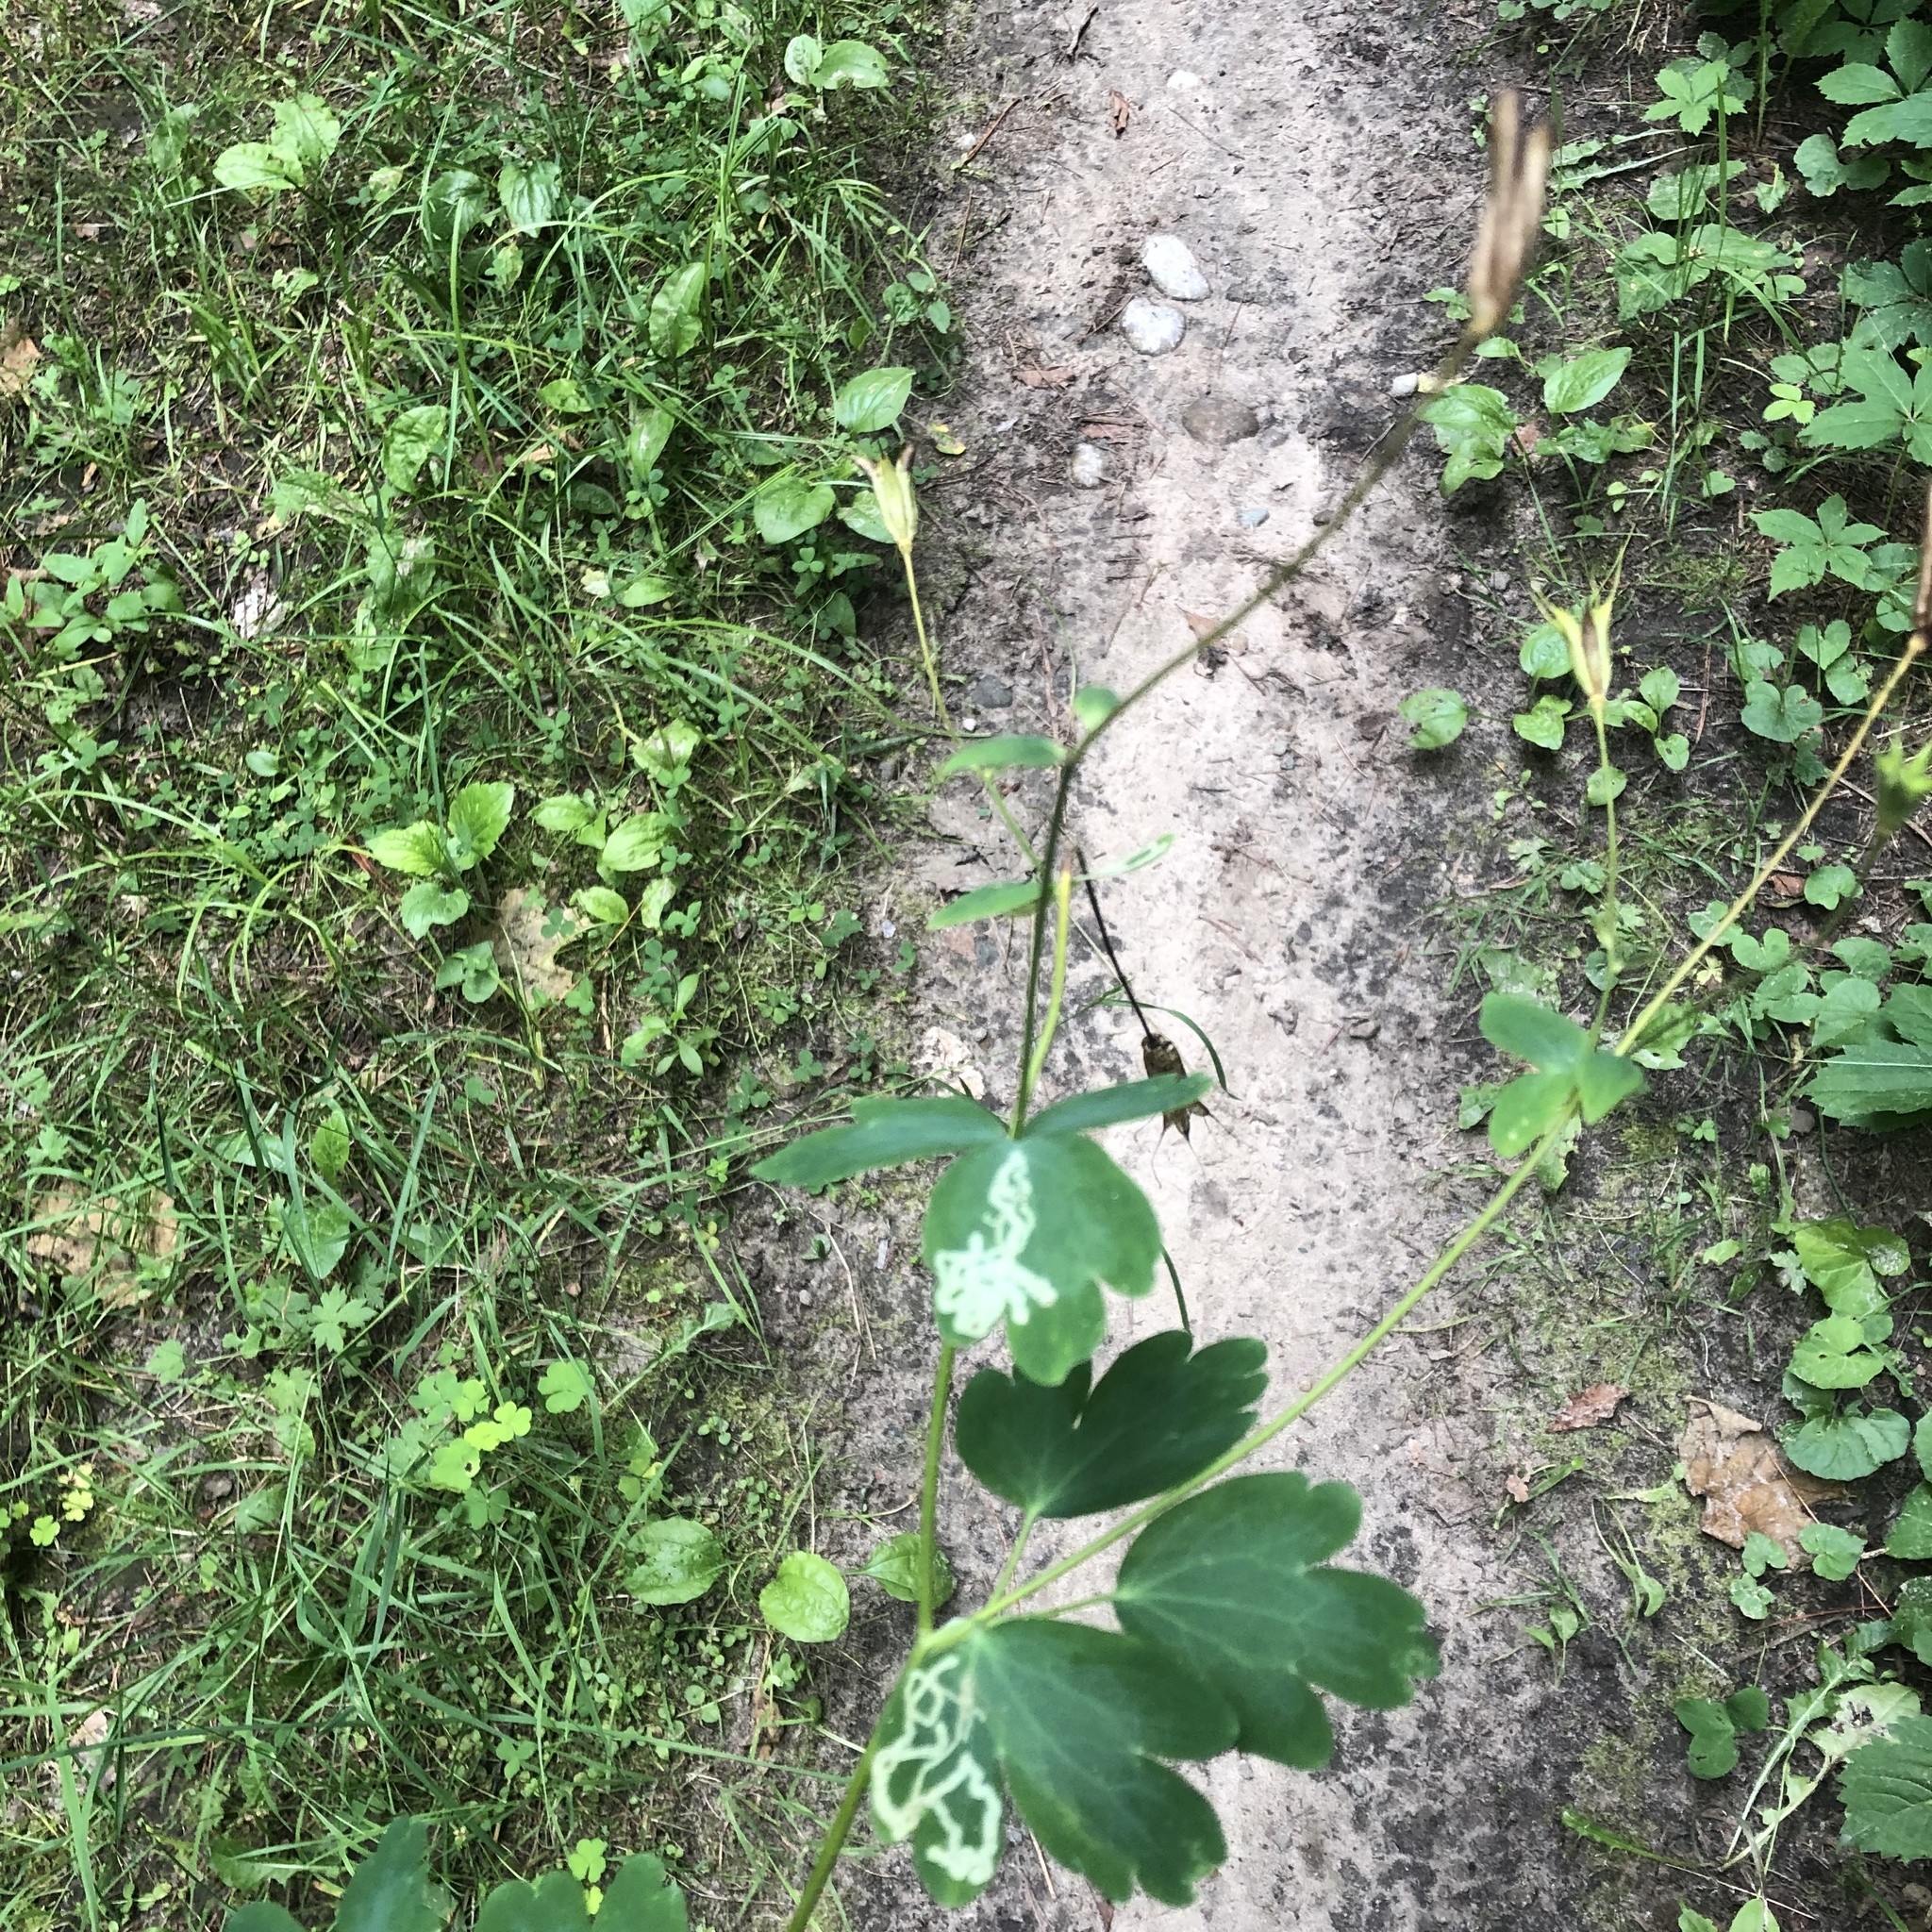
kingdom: Plantae
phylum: Tracheophyta
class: Magnoliopsida
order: Ranunculales
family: Ranunculaceae
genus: Aquilegia
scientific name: Aquilegia canadensis
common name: American columbine
